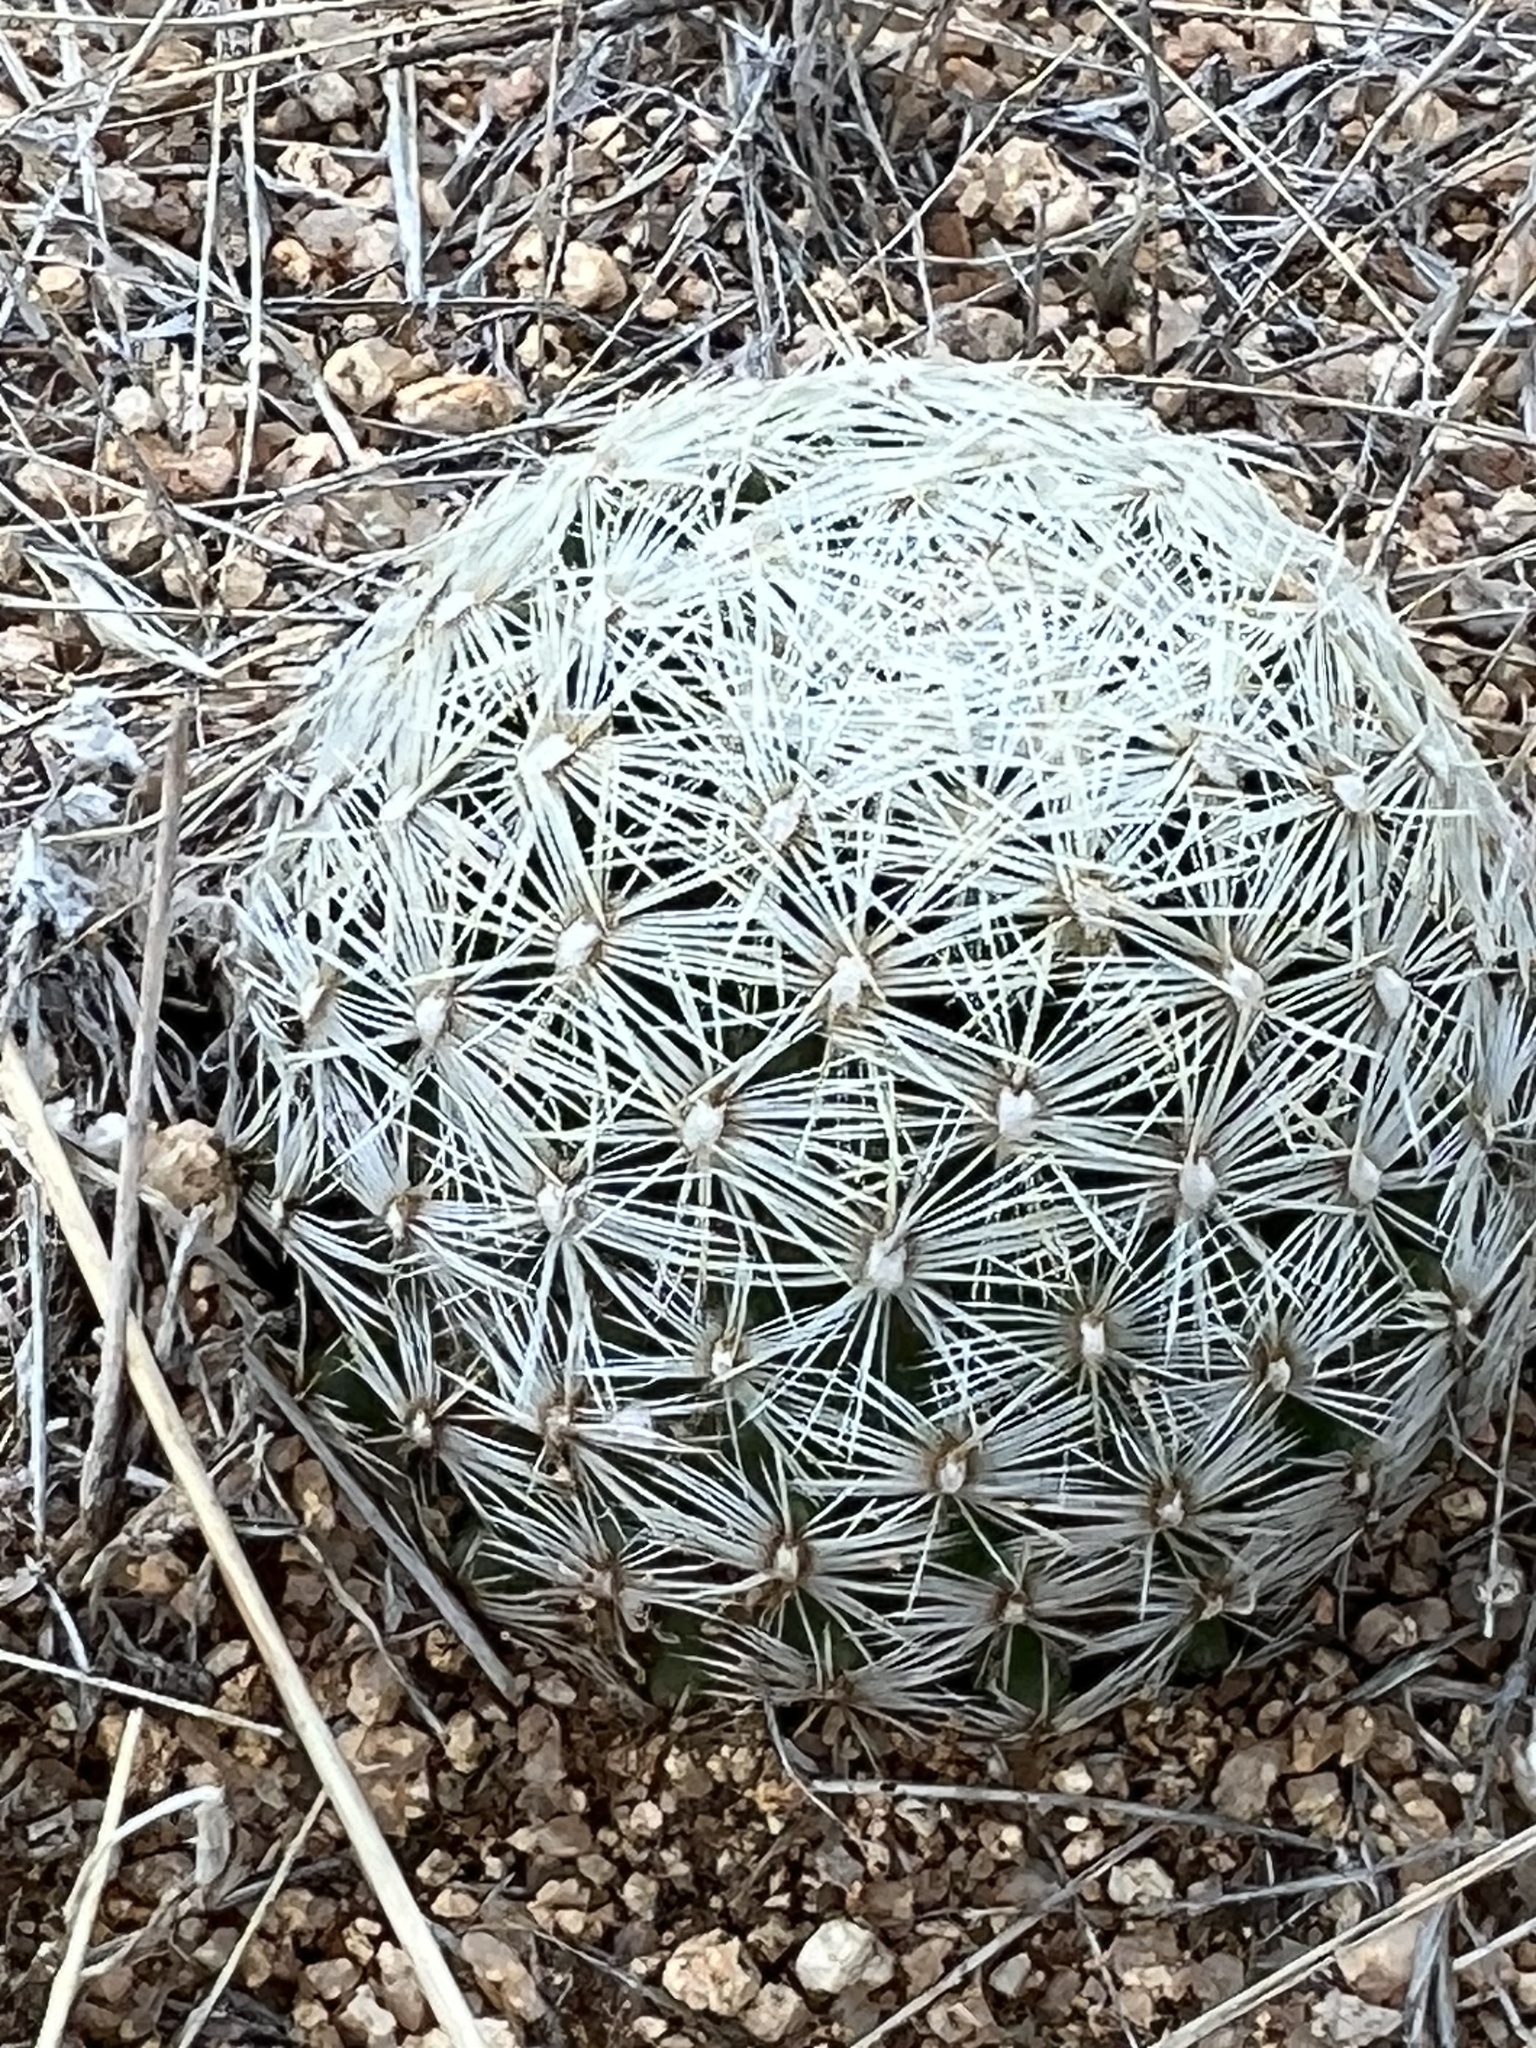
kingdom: Plantae
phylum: Tracheophyta
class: Magnoliopsida
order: Caryophyllales
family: Cactaceae
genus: Pelecyphora
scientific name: Pelecyphora vivipara
